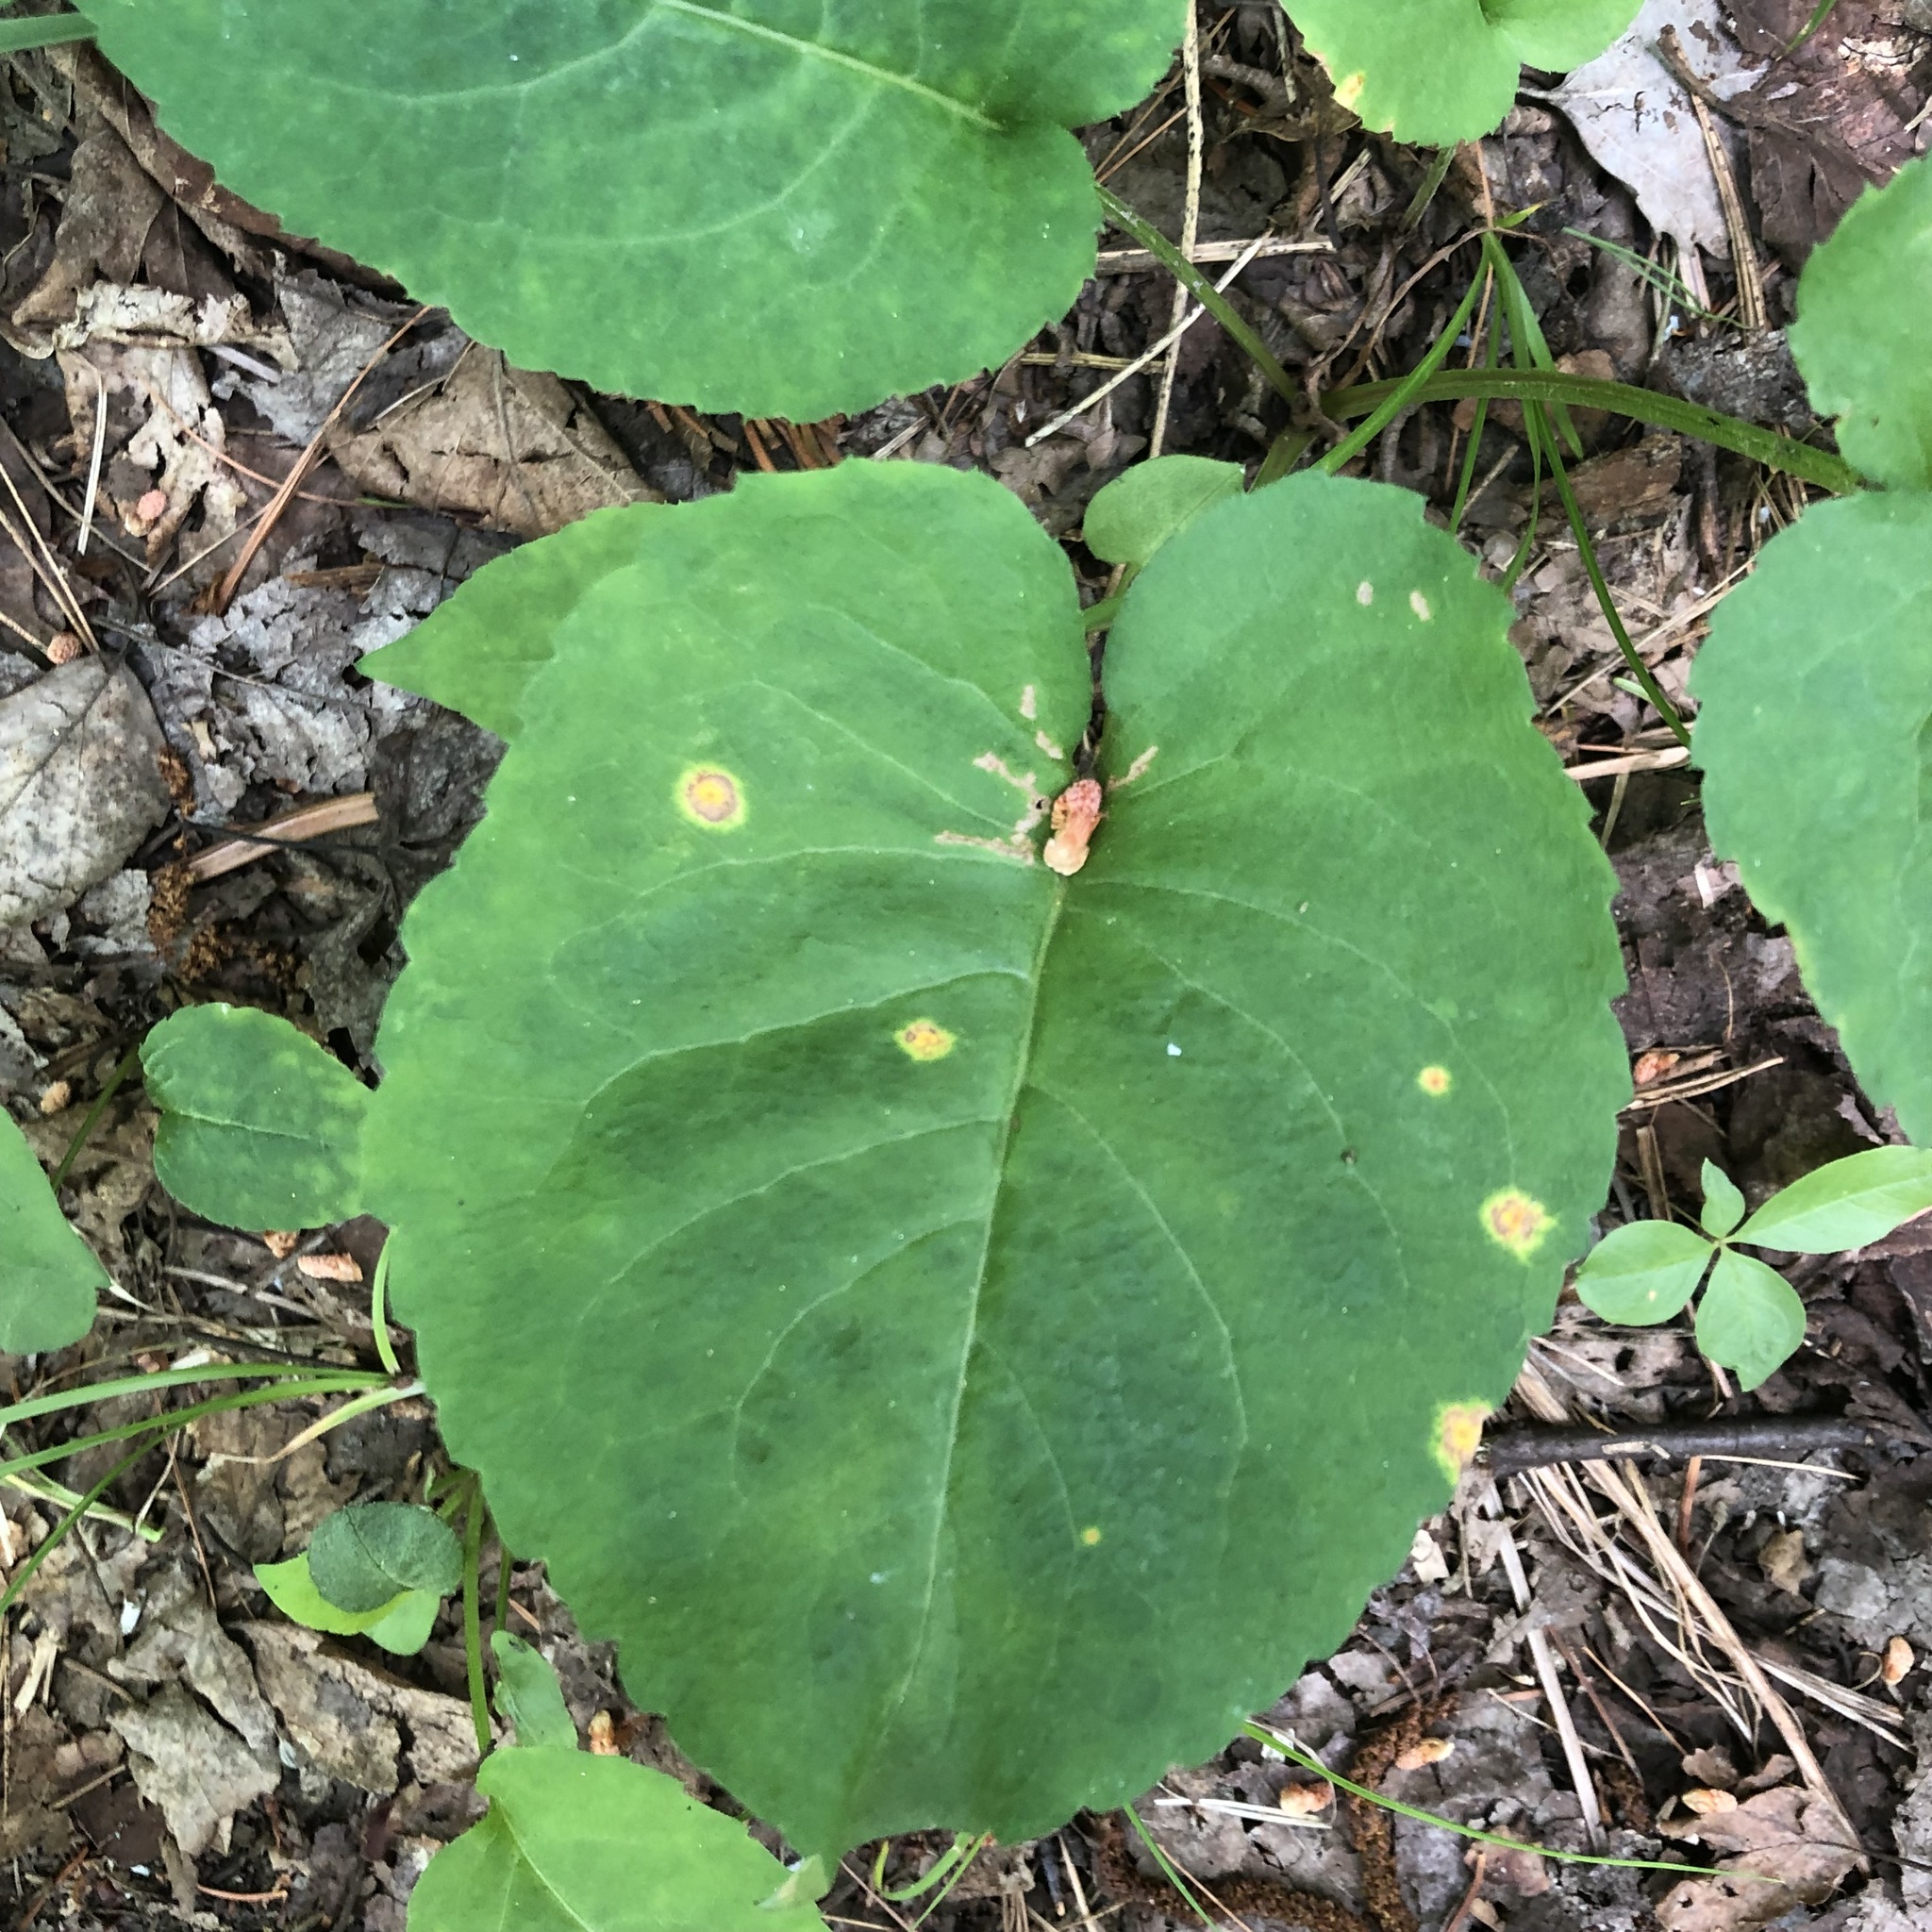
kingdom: Plantae
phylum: Tracheophyta
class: Magnoliopsida
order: Asterales
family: Asteraceae
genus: Eurybia
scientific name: Eurybia macrophylla
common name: Big-leaved aster
